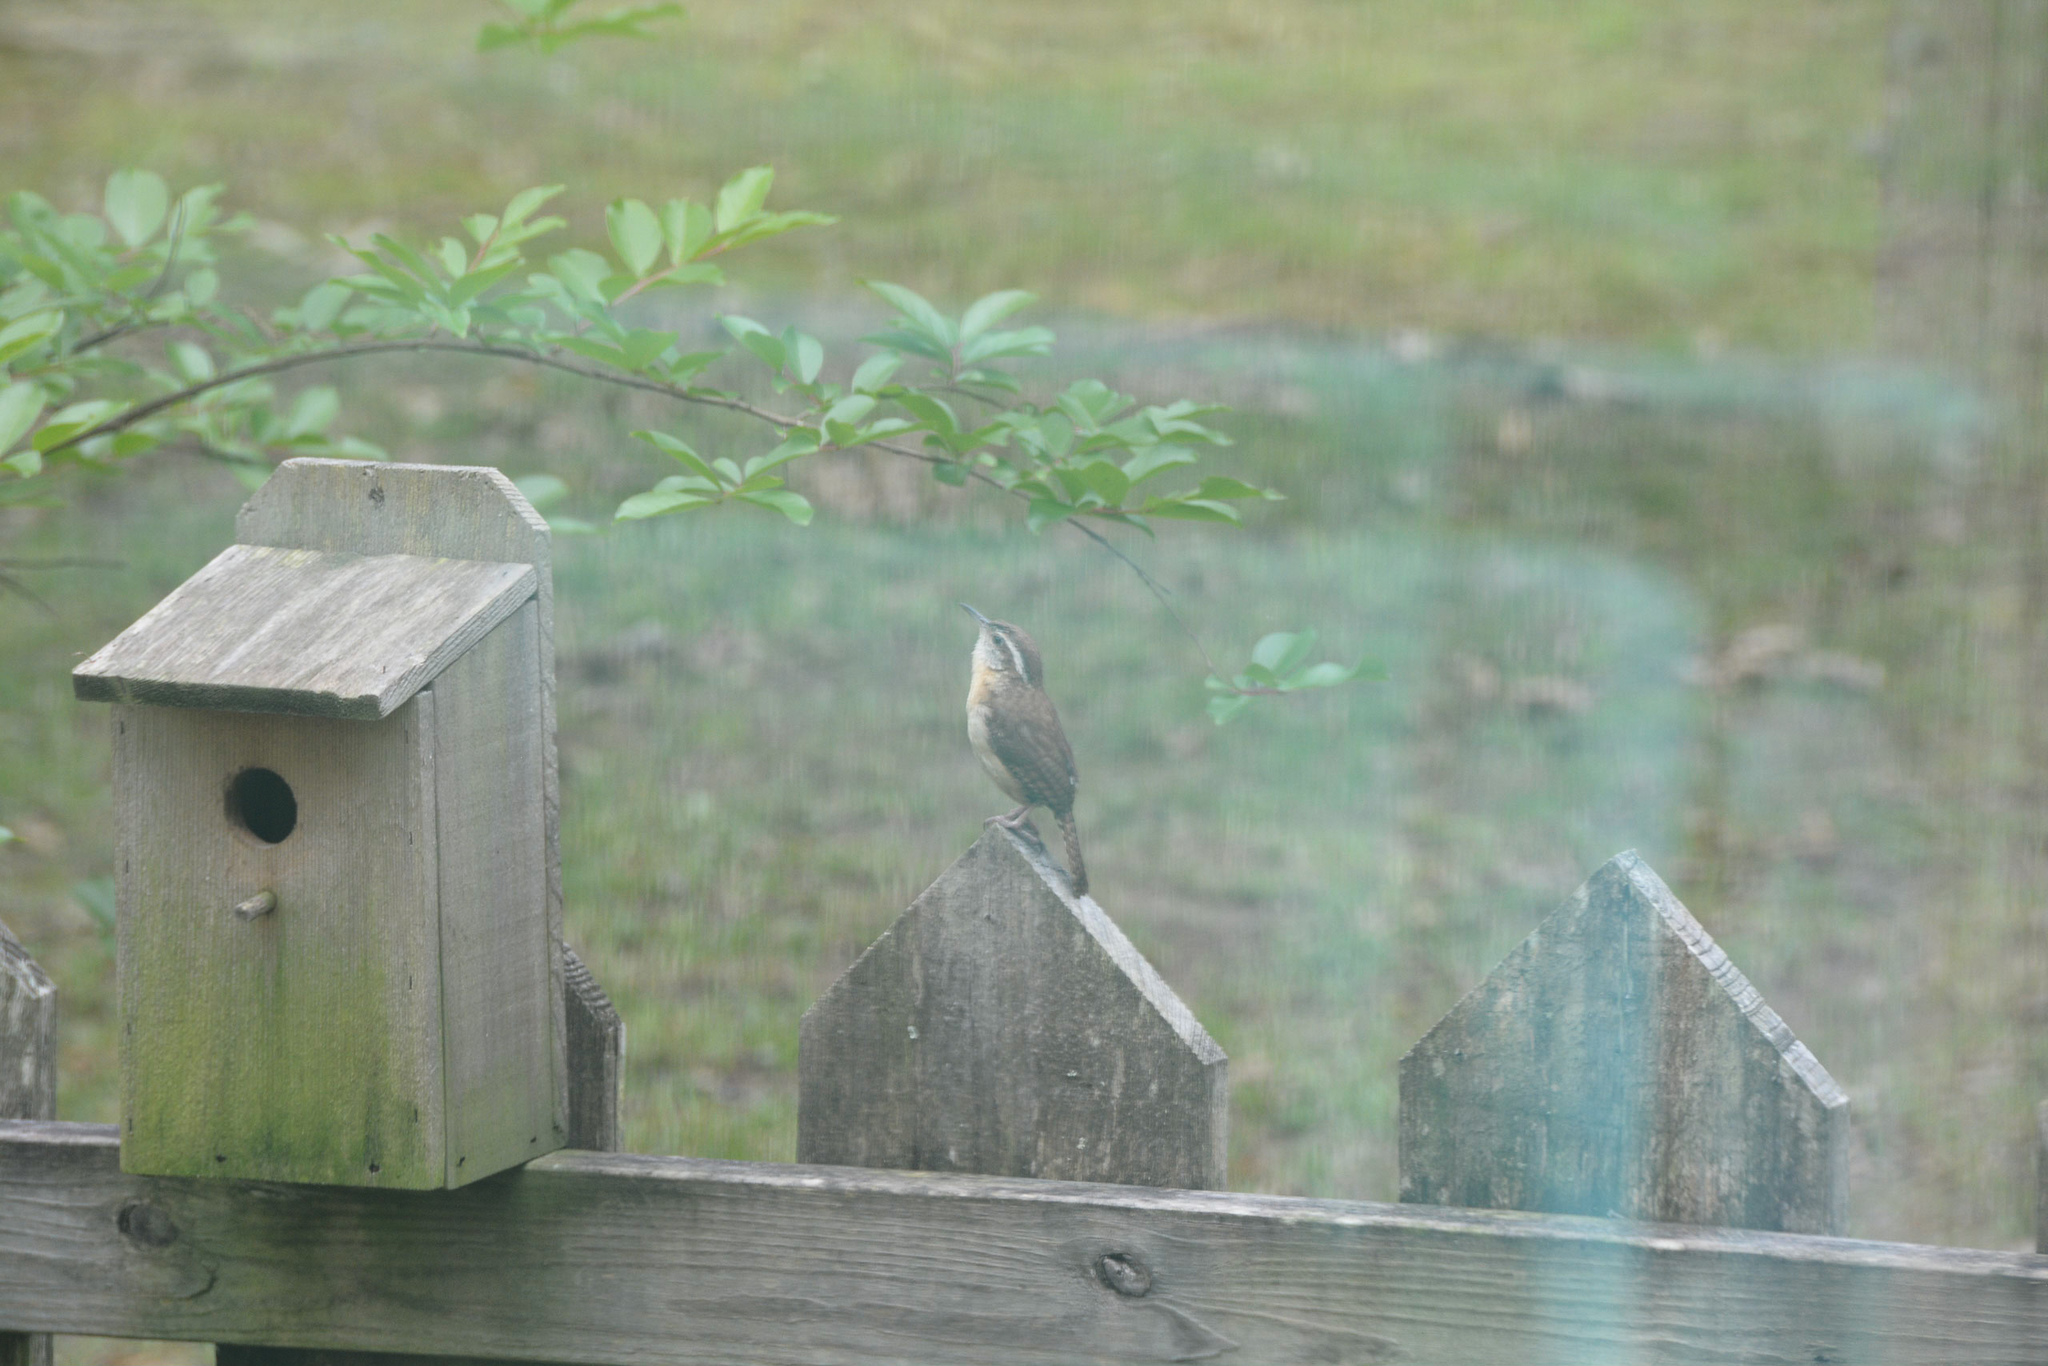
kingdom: Animalia
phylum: Chordata
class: Aves
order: Passeriformes
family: Troglodytidae
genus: Thryothorus
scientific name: Thryothorus ludovicianus
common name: Carolina wren
